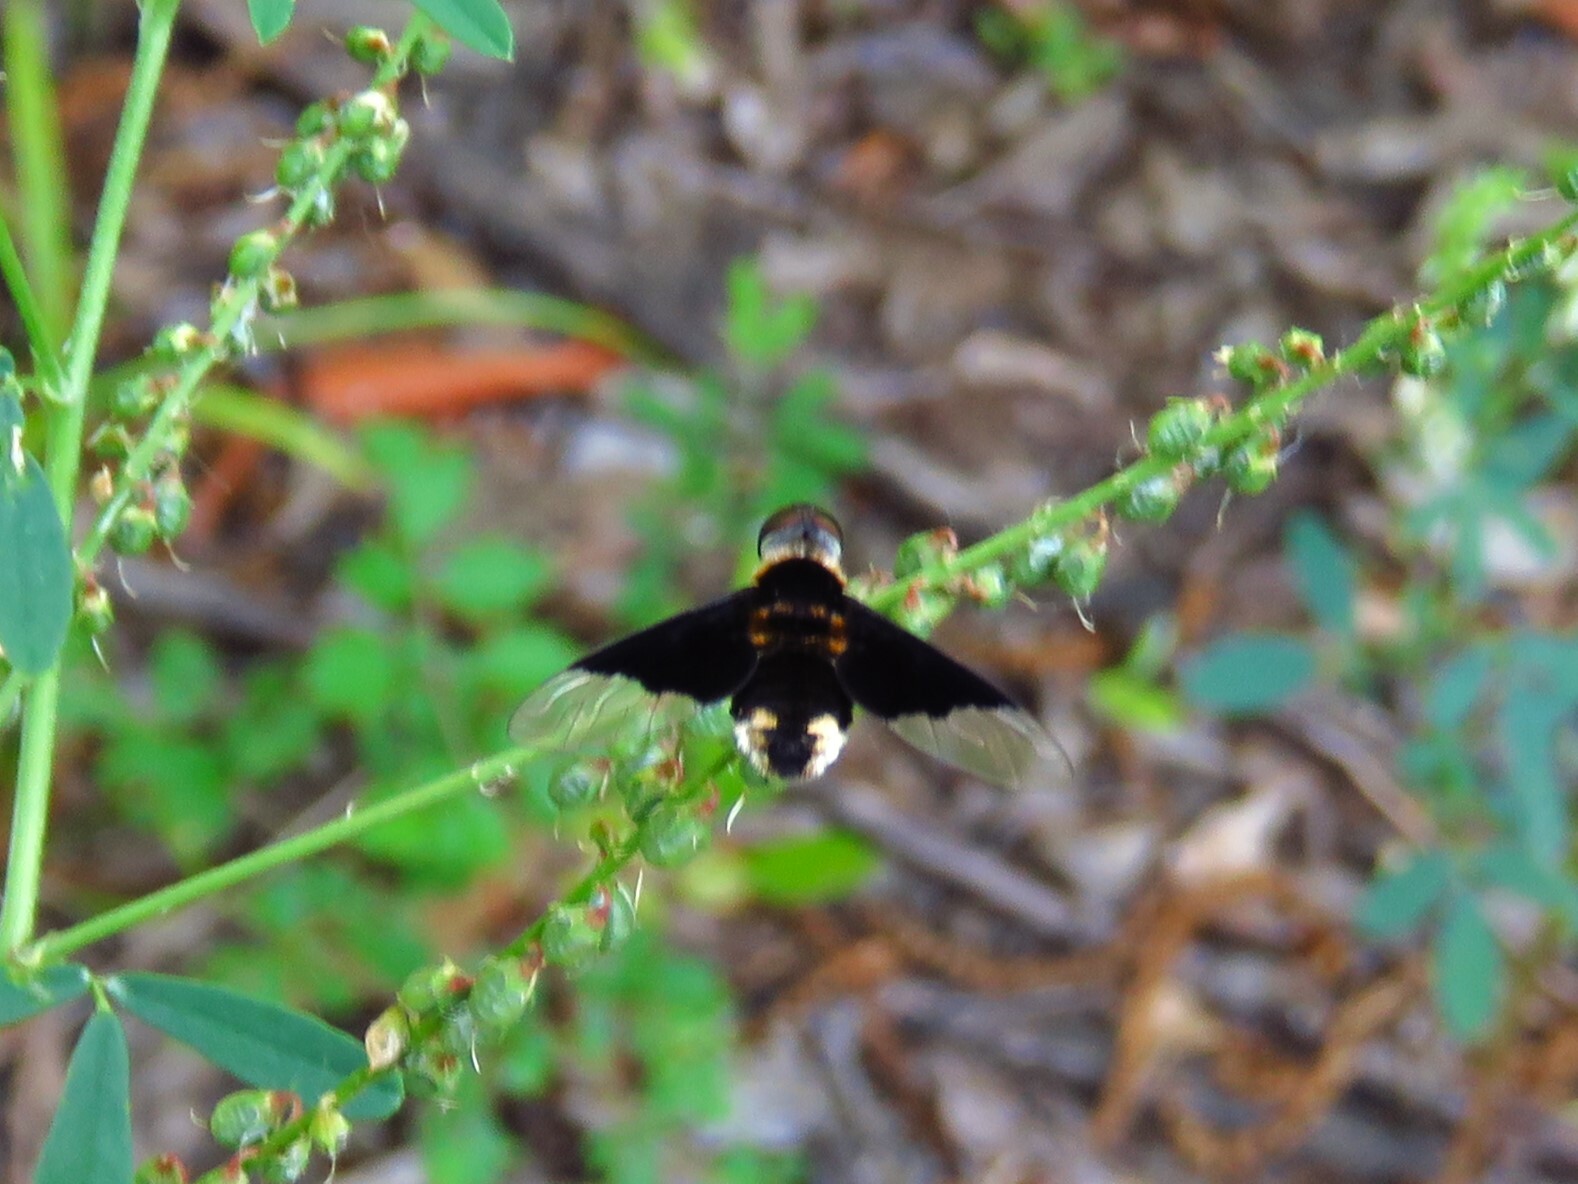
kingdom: Animalia
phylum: Arthropoda
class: Insecta
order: Diptera
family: Bombyliidae
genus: Ins
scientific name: Ins celeris
